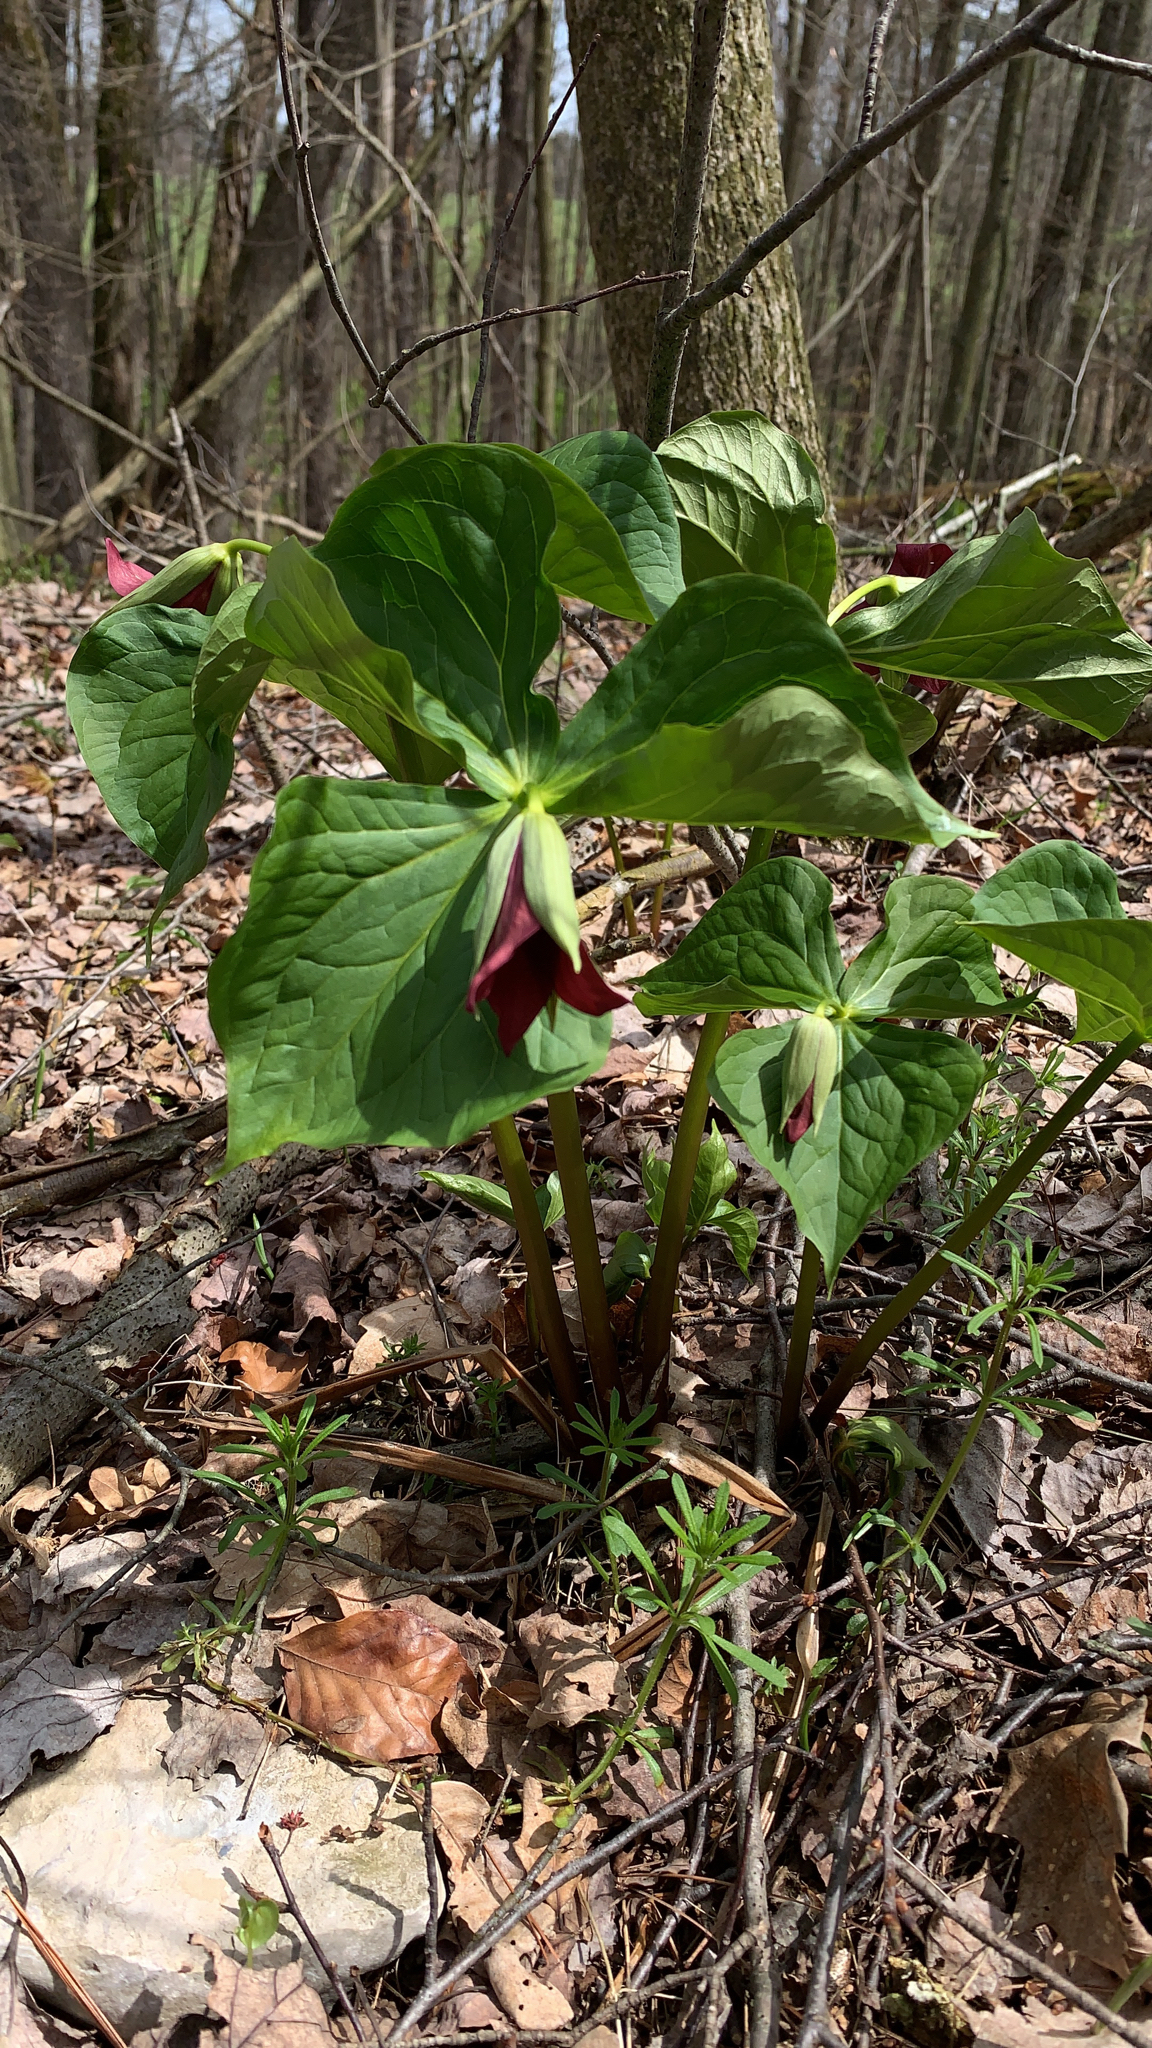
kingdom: Plantae
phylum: Tracheophyta
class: Liliopsida
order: Liliales
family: Melanthiaceae
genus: Trillium
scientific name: Trillium erectum
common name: Purple trillium
